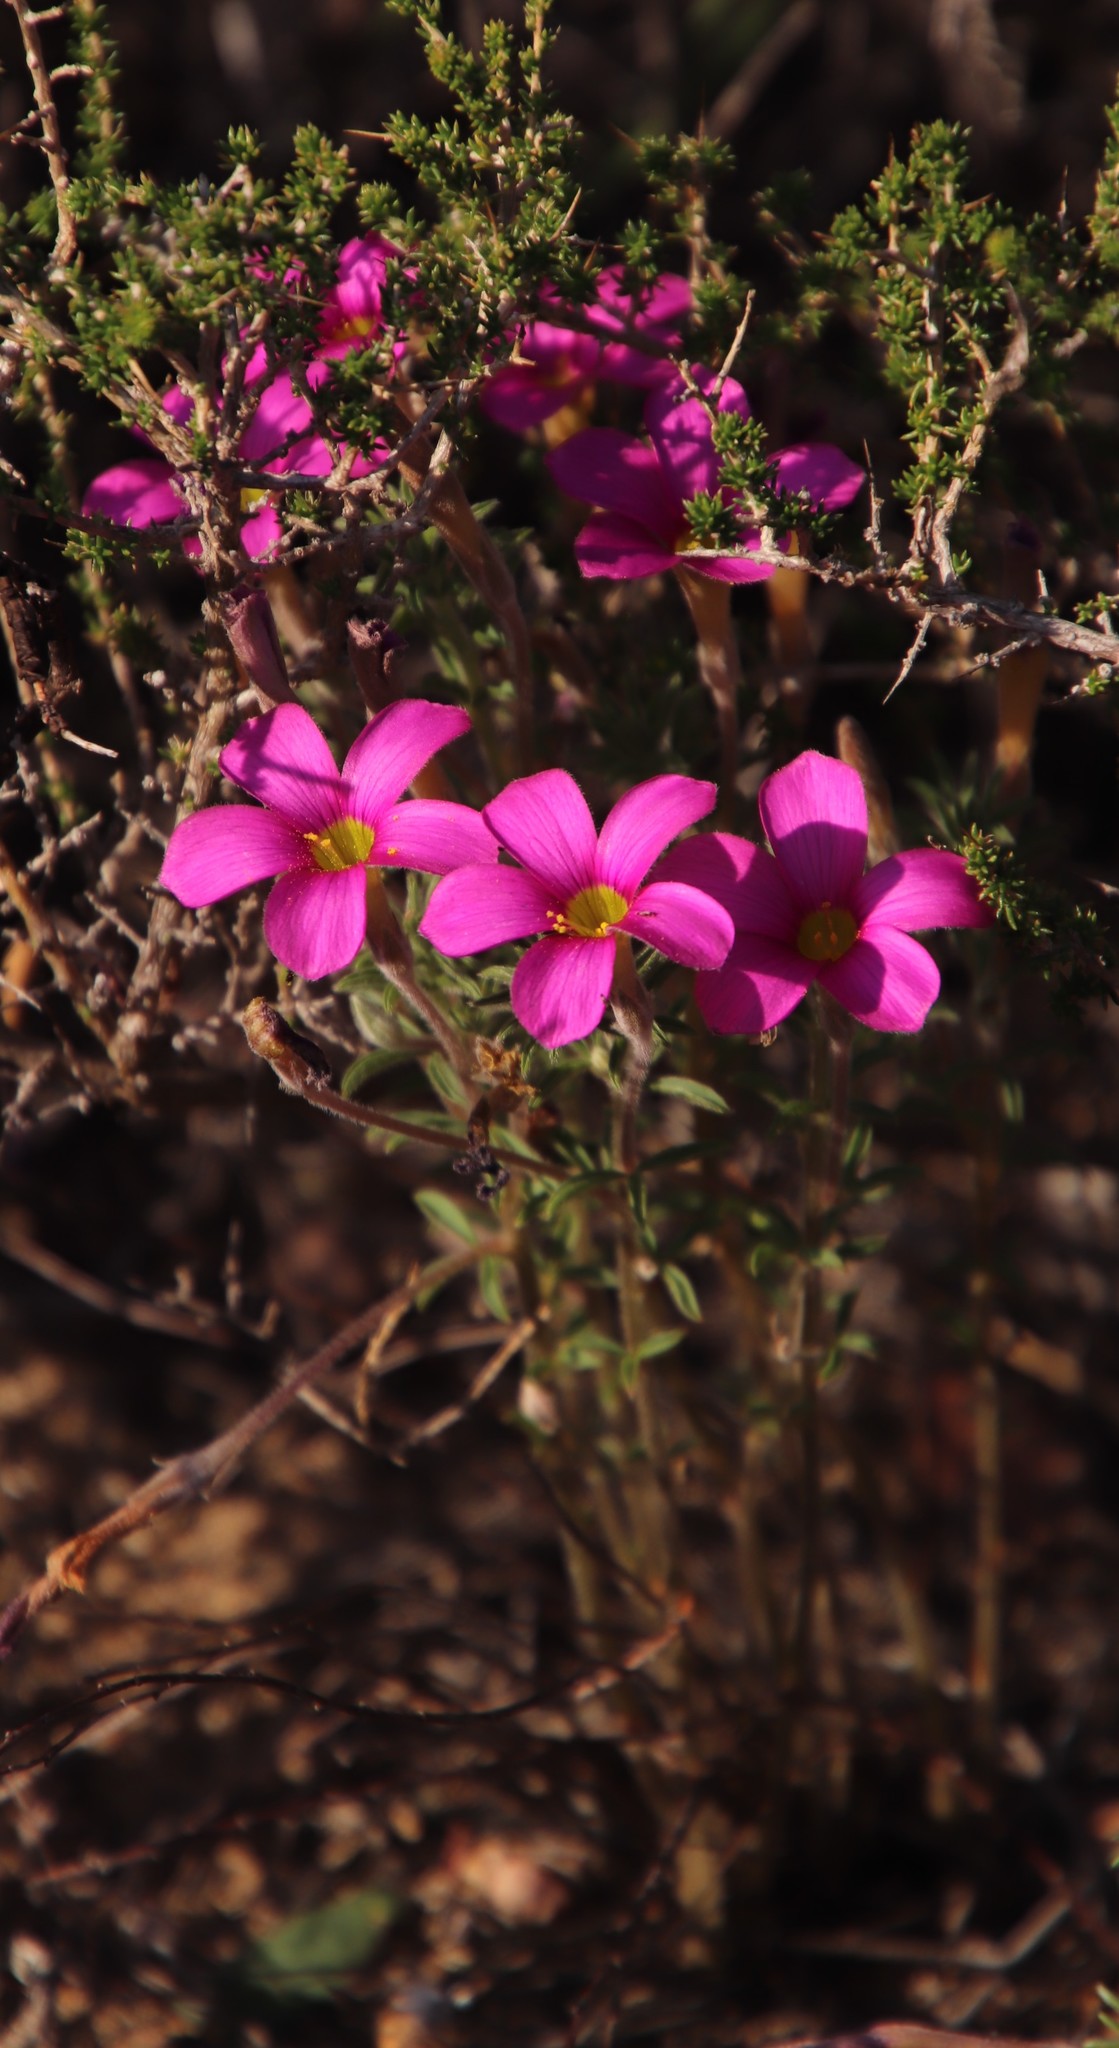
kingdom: Plantae
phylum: Tracheophyta
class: Magnoliopsida
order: Oxalidales
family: Oxalidaceae
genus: Oxalis
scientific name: Oxalis hirta
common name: Tropical woodsorrel
